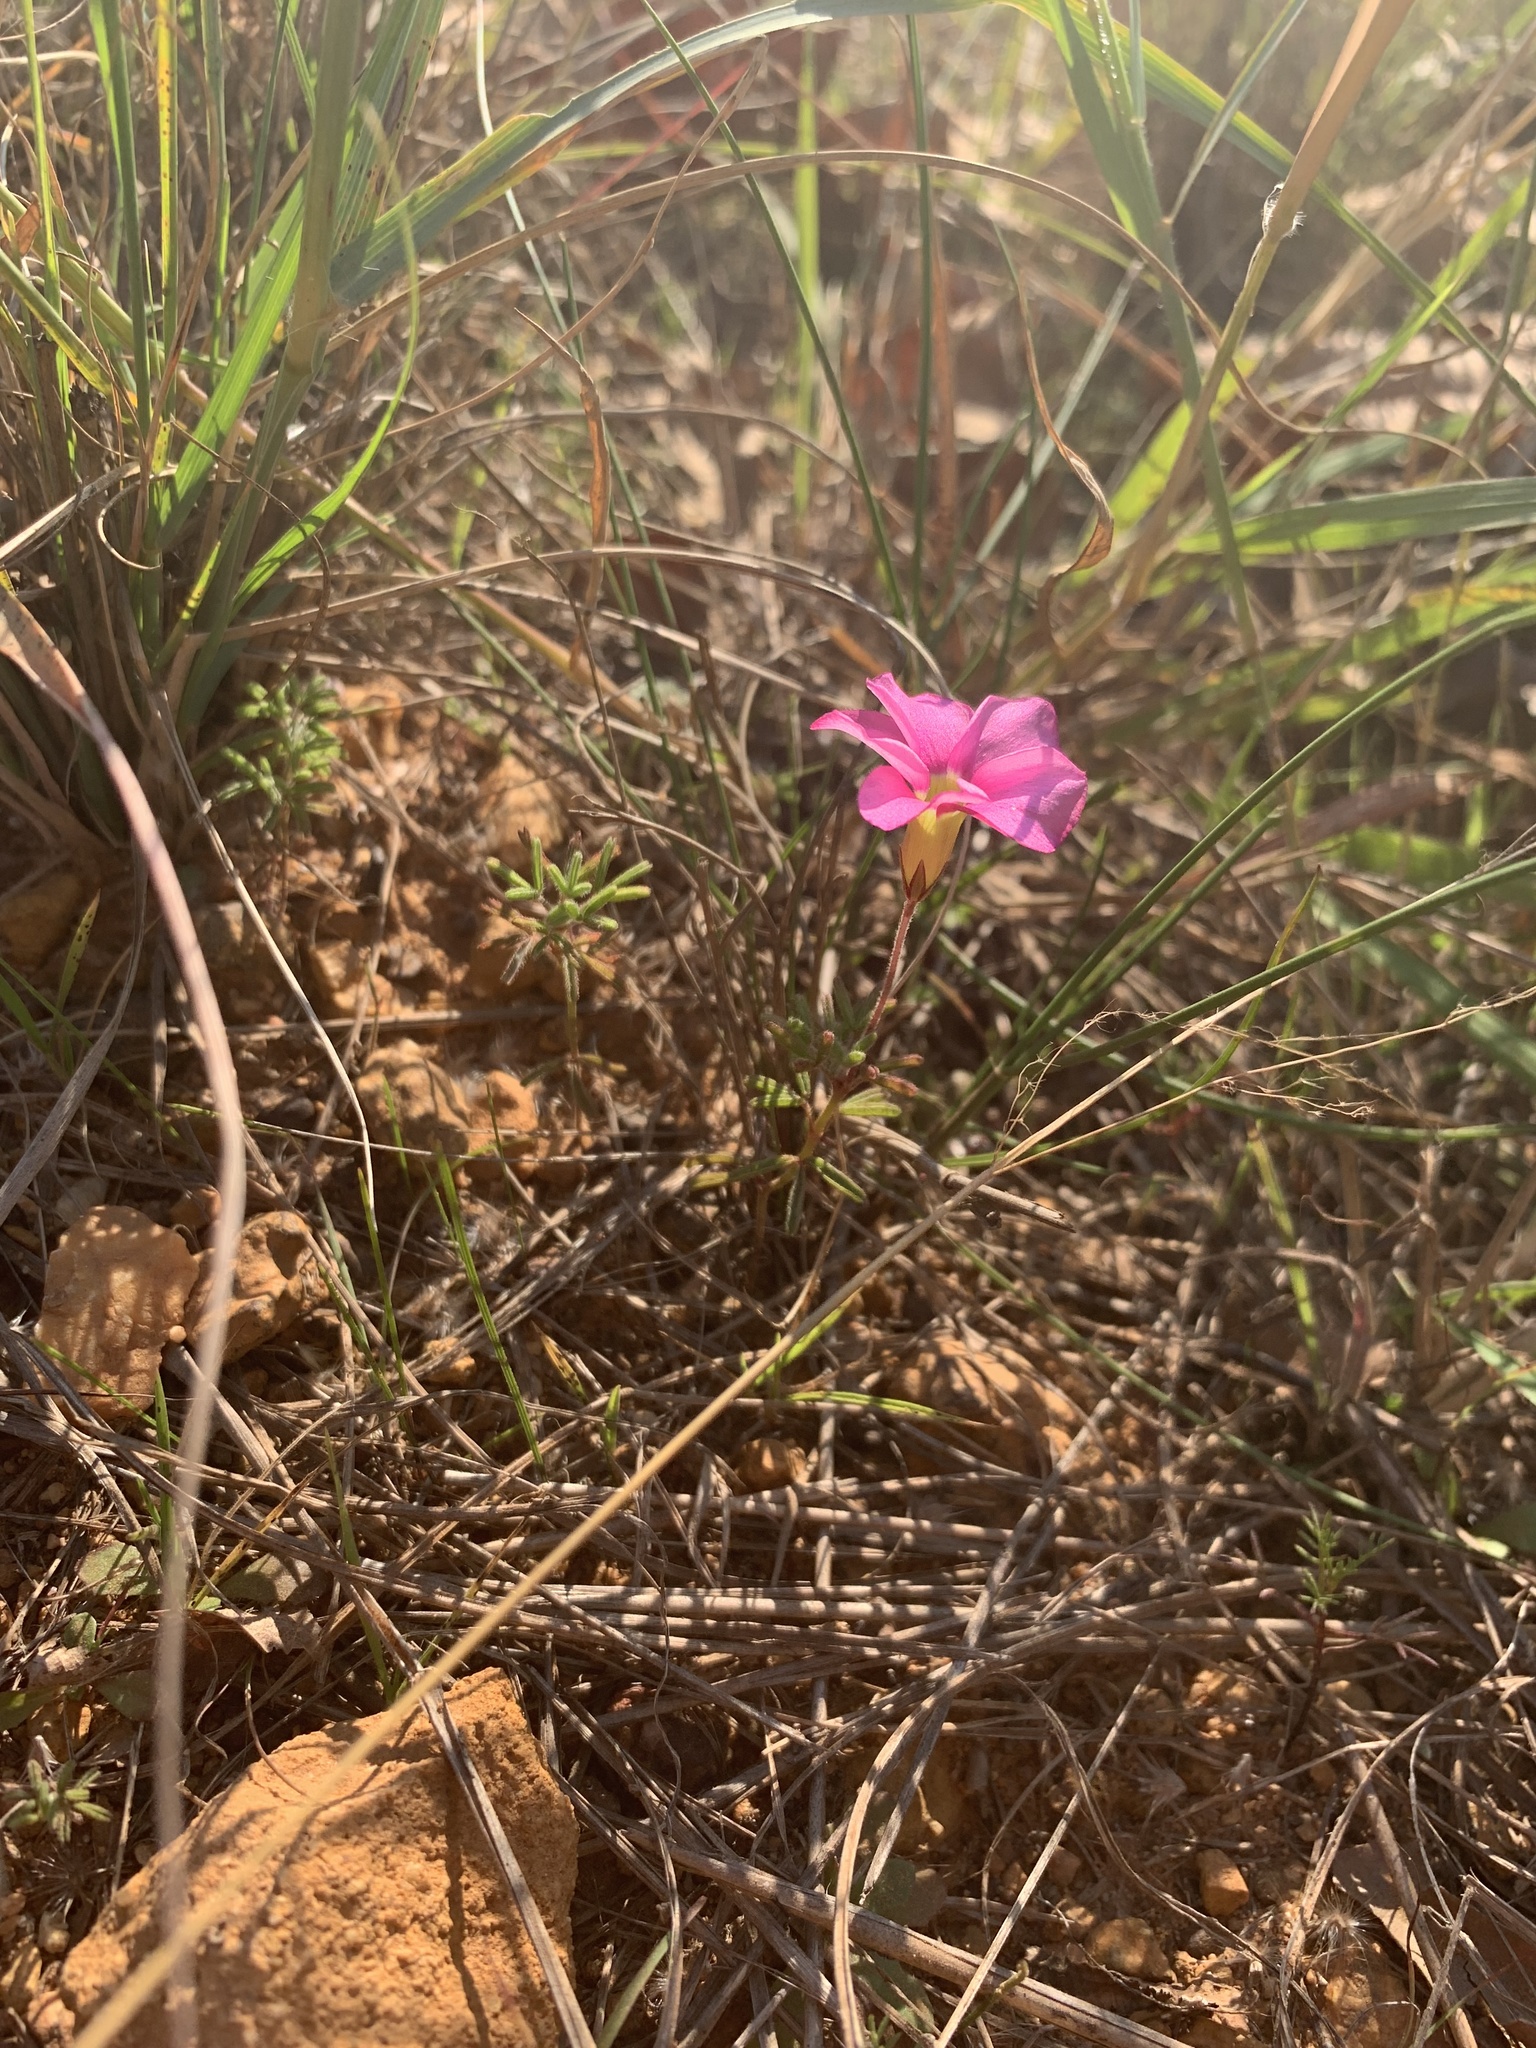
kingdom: Plantae
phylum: Tracheophyta
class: Magnoliopsida
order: Oxalidales
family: Oxalidaceae
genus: Oxalis
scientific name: Oxalis glabra
